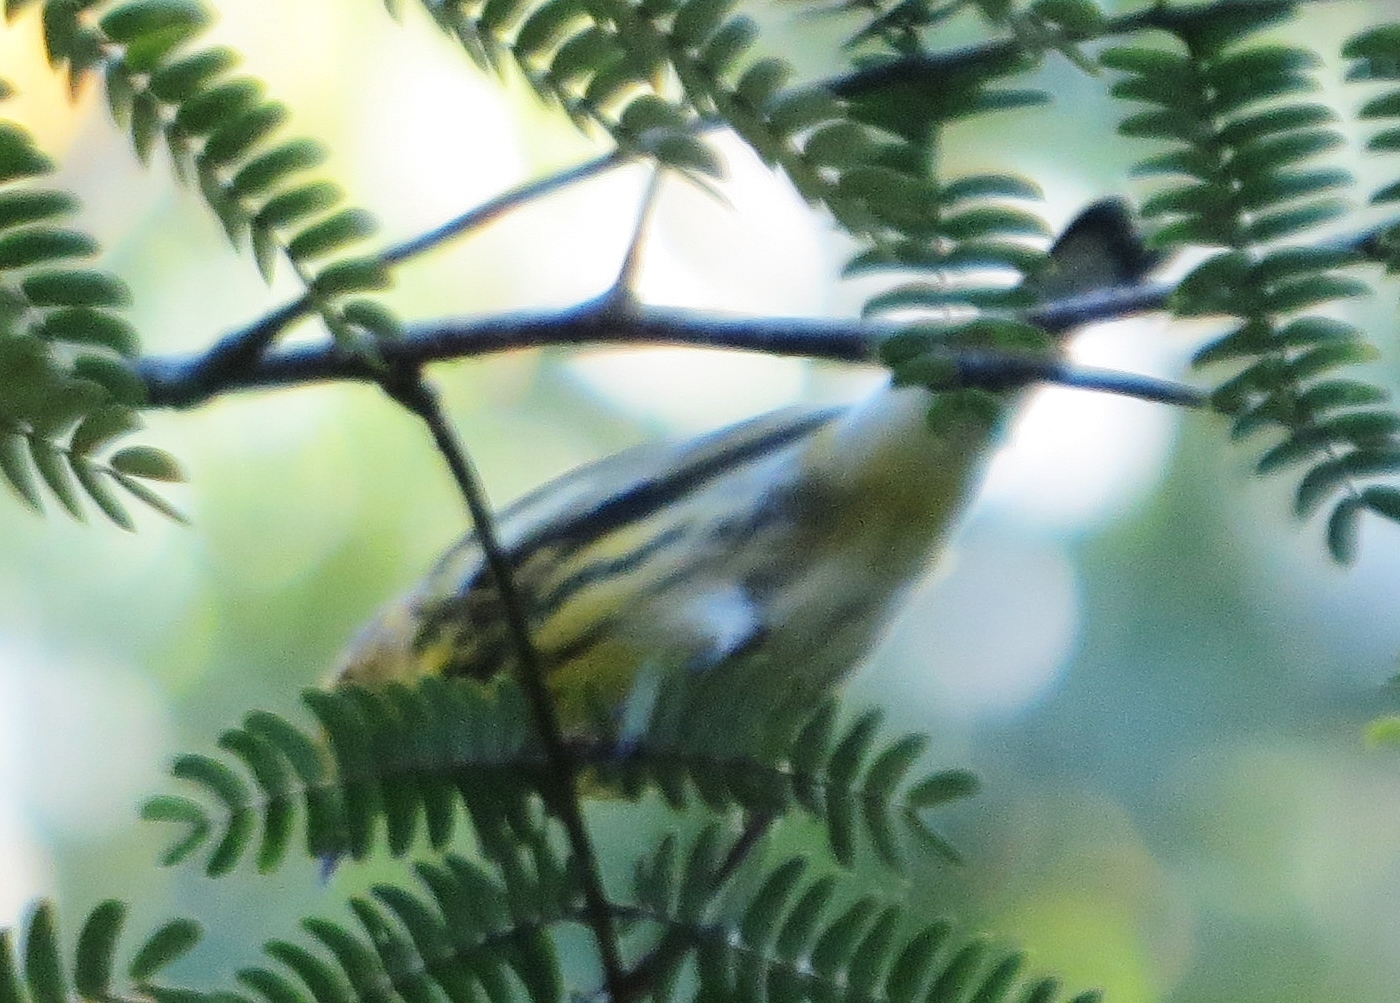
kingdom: Animalia
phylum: Chordata
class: Aves
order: Passeriformes
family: Parulidae
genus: Setophaga
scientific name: Setophaga tigrina
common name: Cape may warbler
